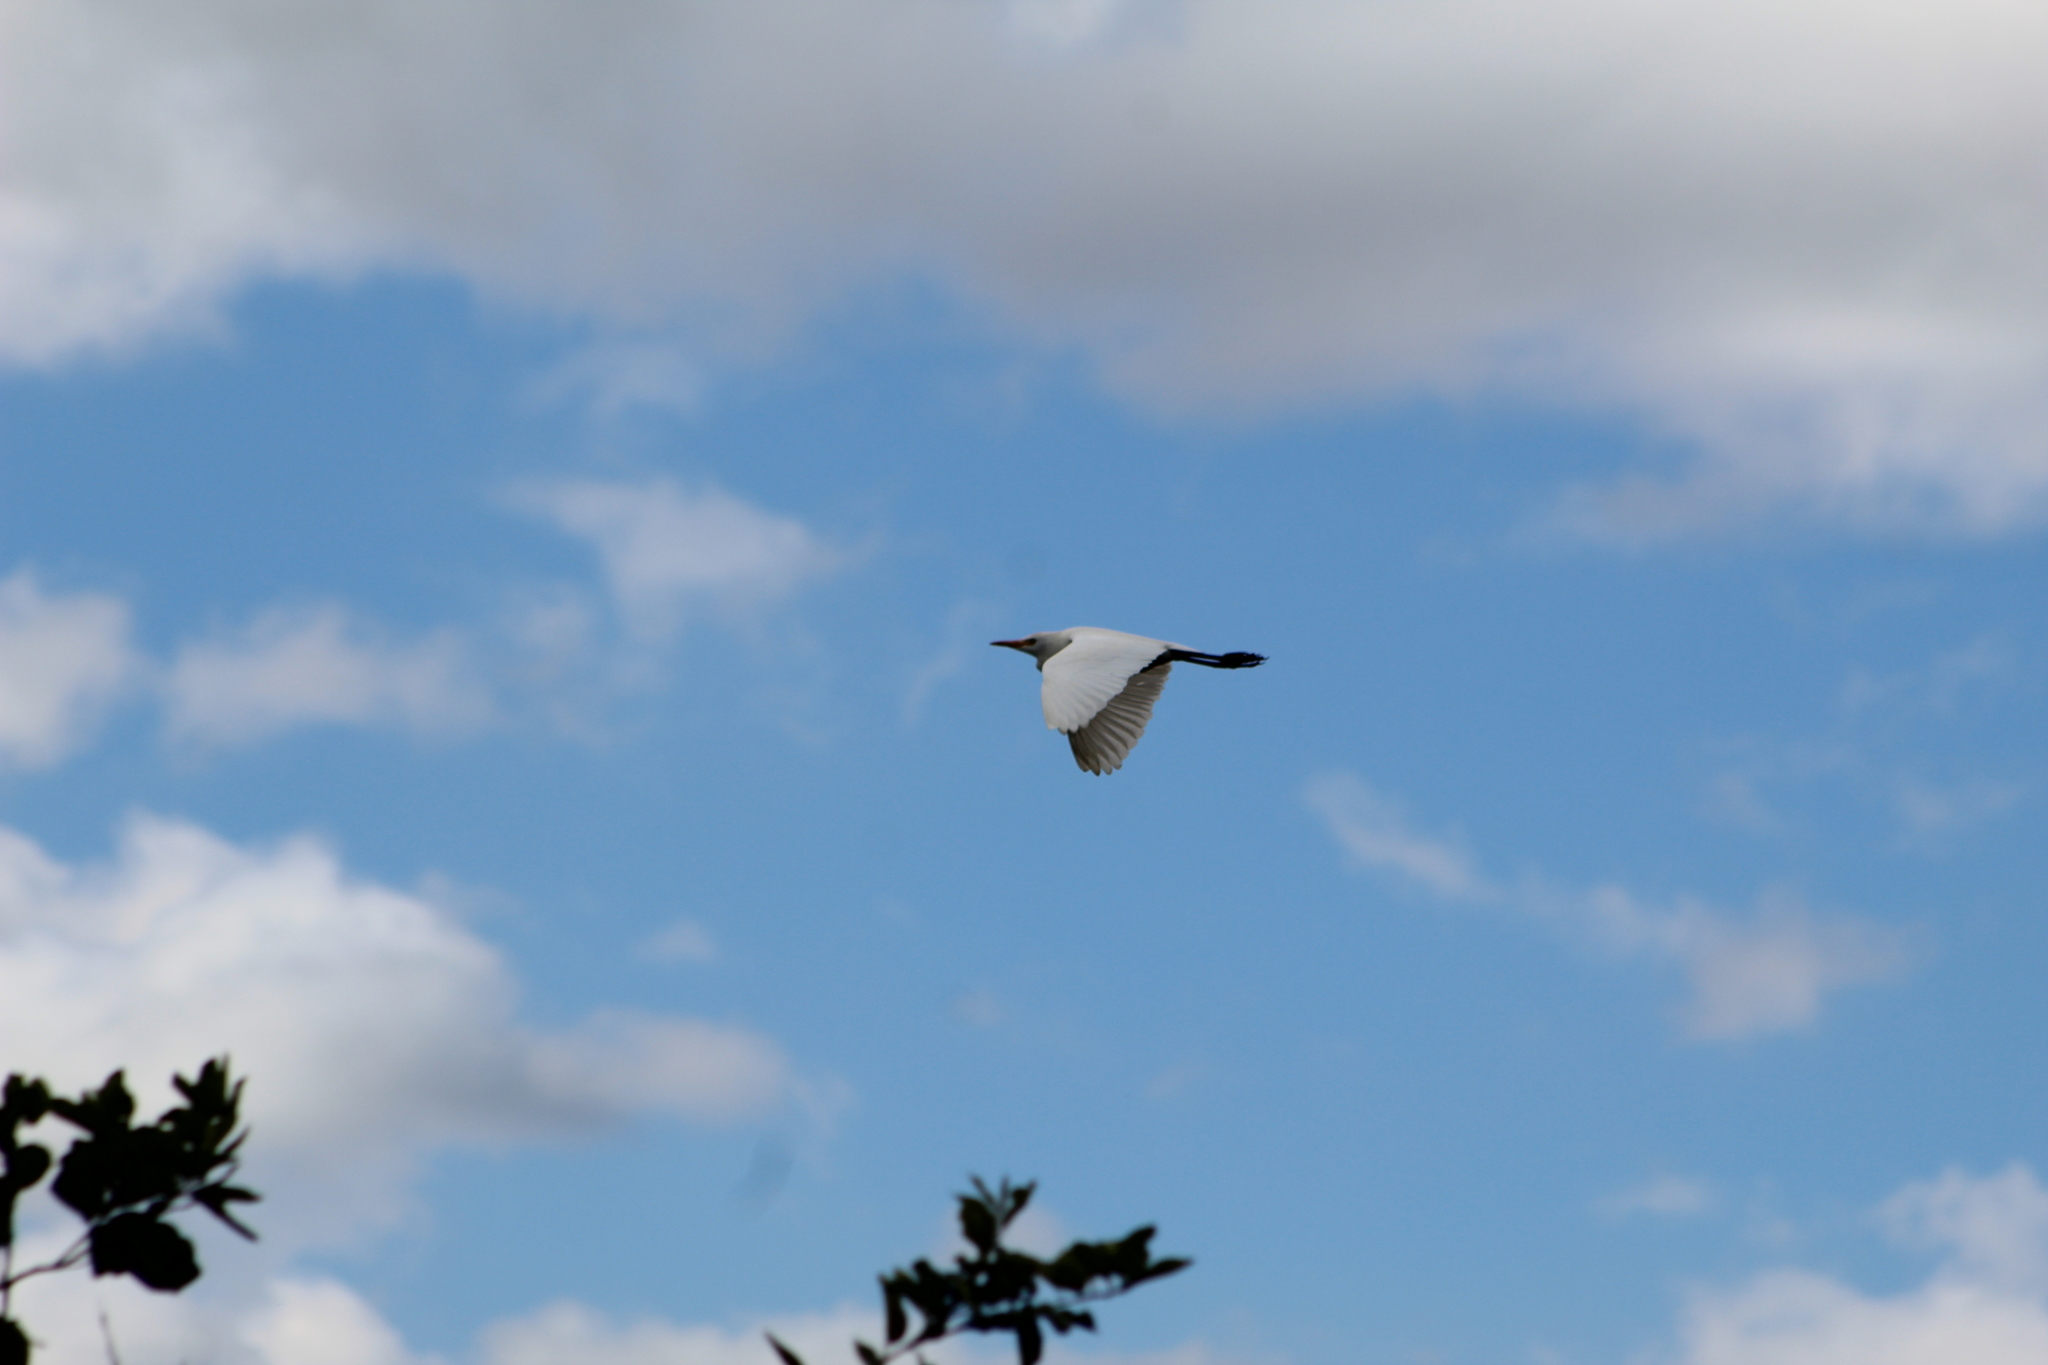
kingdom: Animalia
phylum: Chordata
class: Aves
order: Pelecaniformes
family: Ardeidae
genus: Bubulcus
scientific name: Bubulcus ibis
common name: Cattle egret
